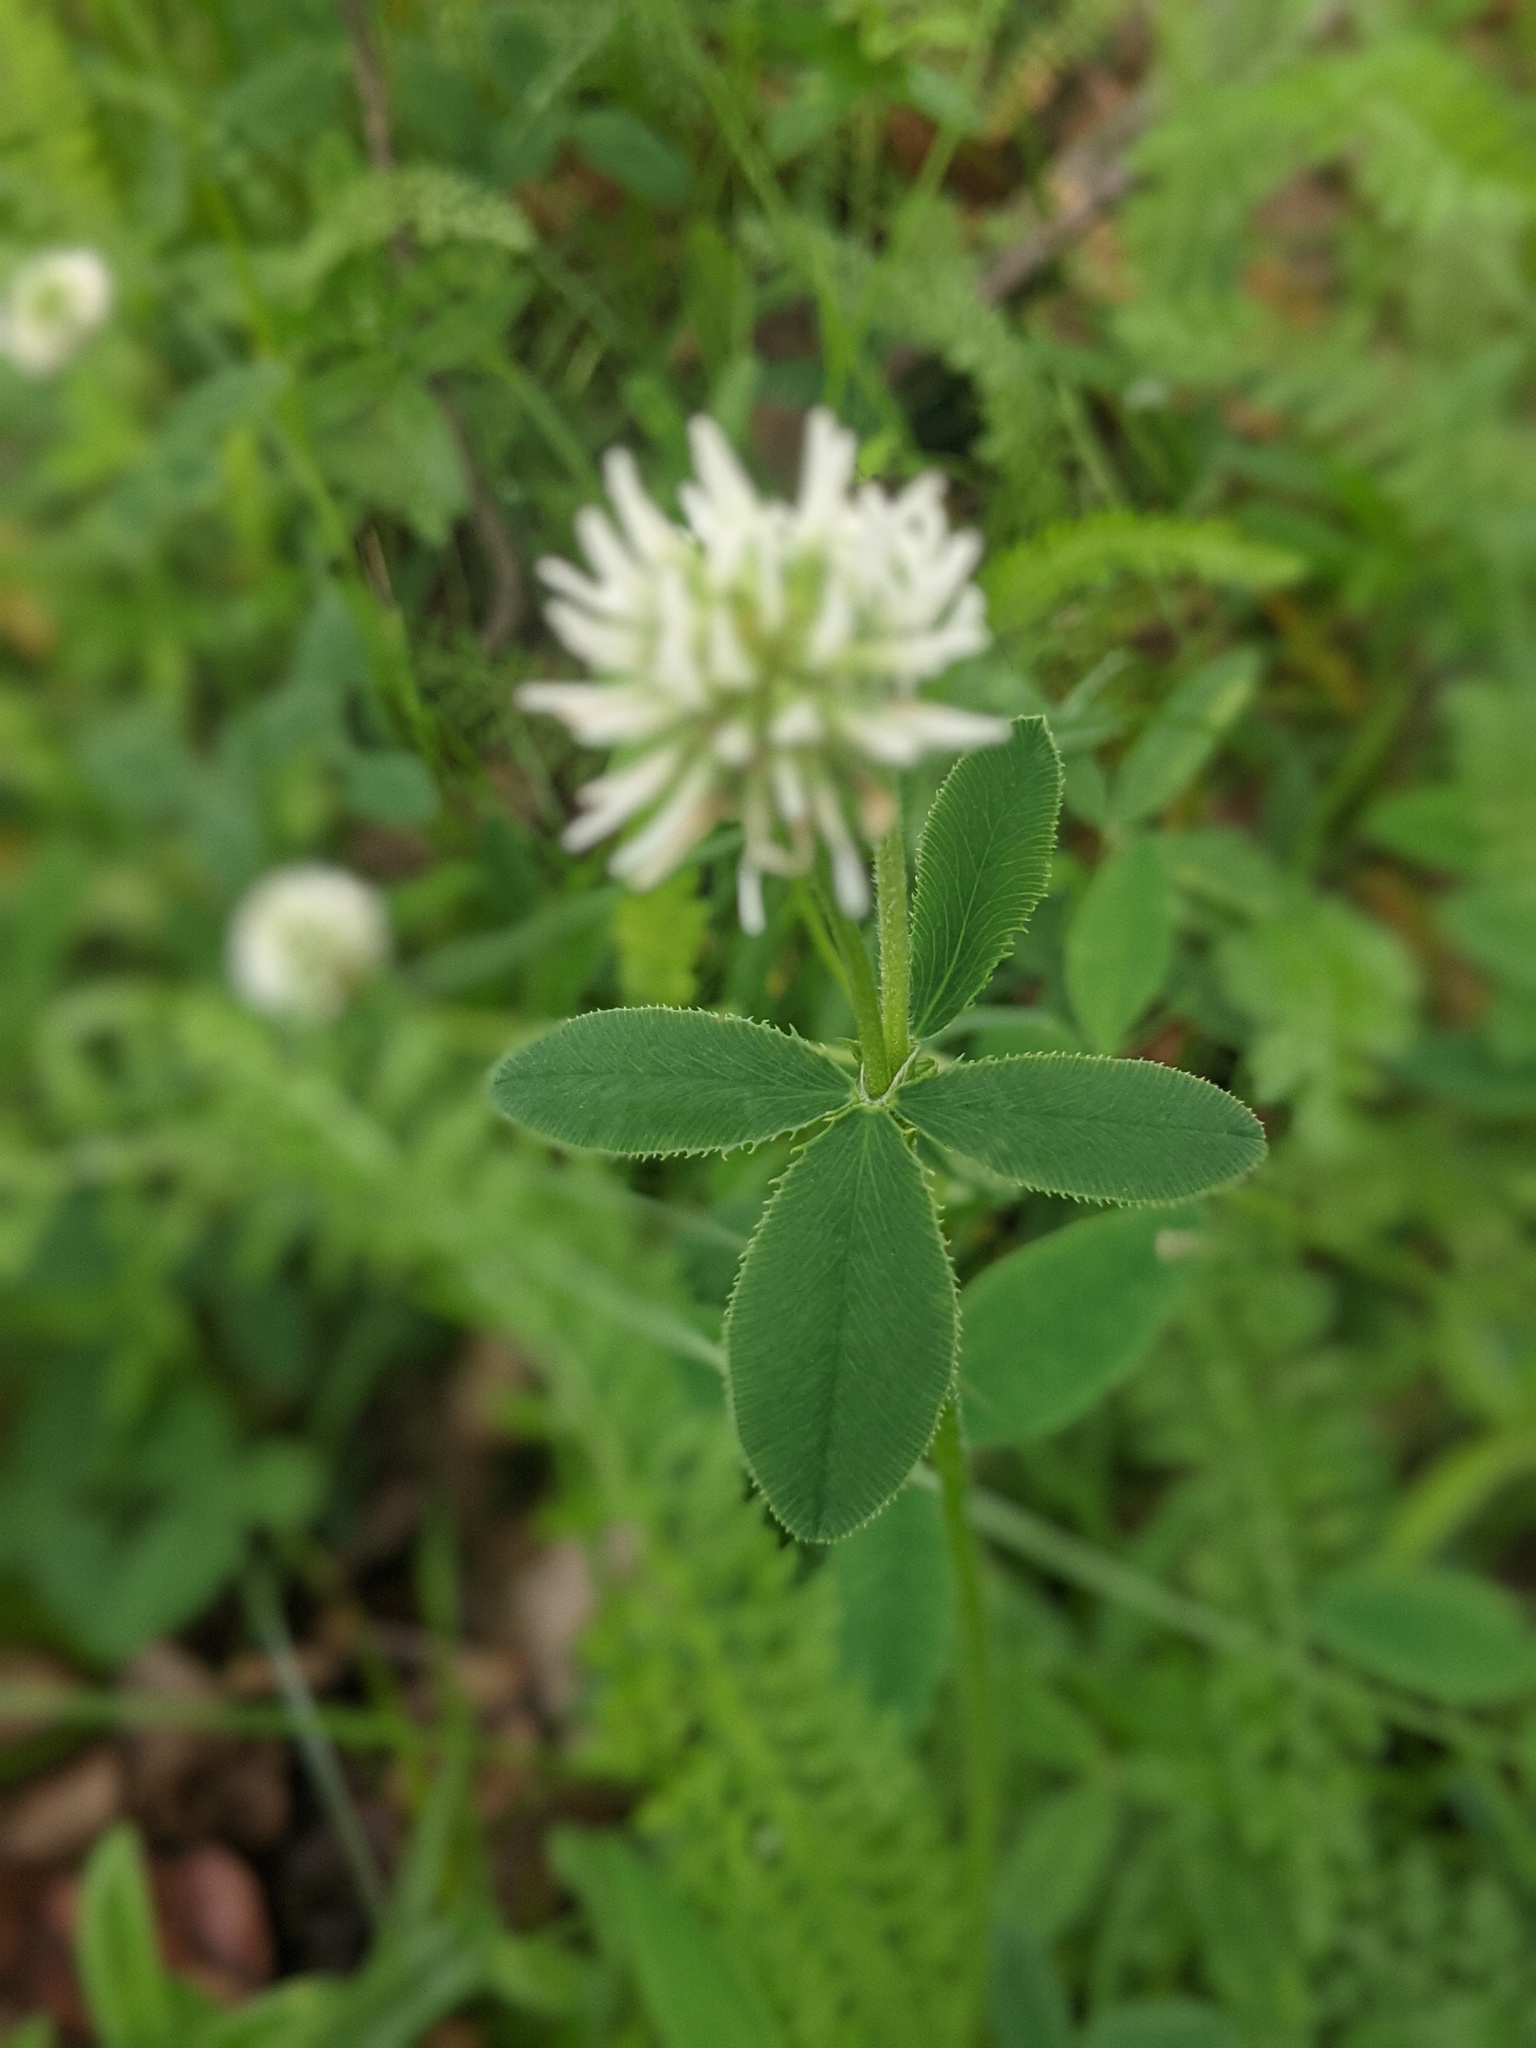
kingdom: Plantae
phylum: Tracheophyta
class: Magnoliopsida
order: Fabales
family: Fabaceae
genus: Trifolium
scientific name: Trifolium montanum
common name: Mountain clover
